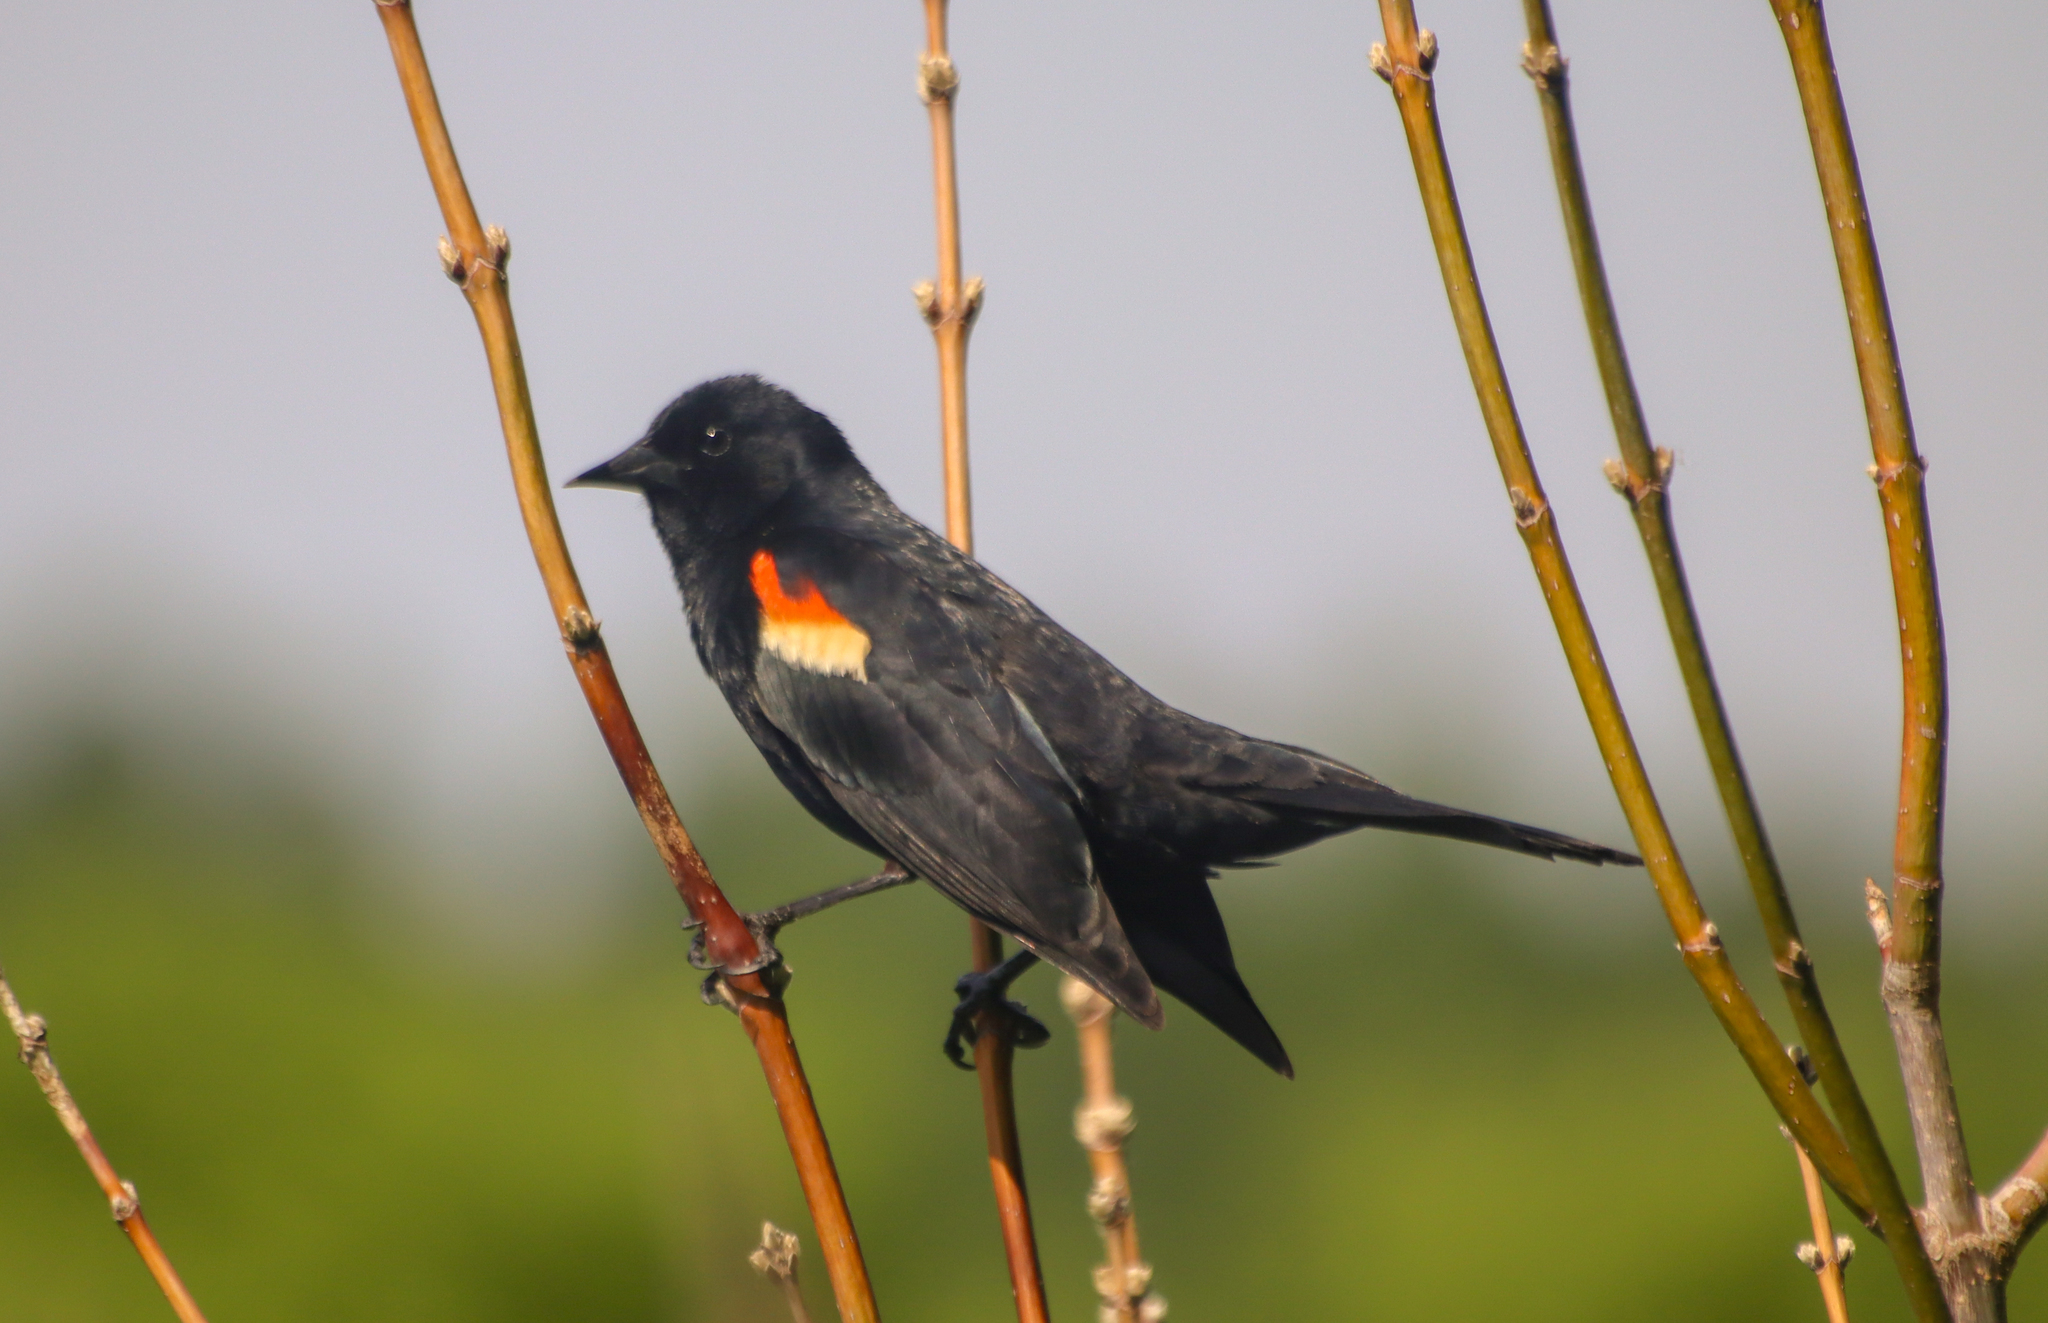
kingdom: Animalia
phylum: Chordata
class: Aves
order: Passeriformes
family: Icteridae
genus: Agelaius
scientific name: Agelaius phoeniceus
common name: Red-winged blackbird
